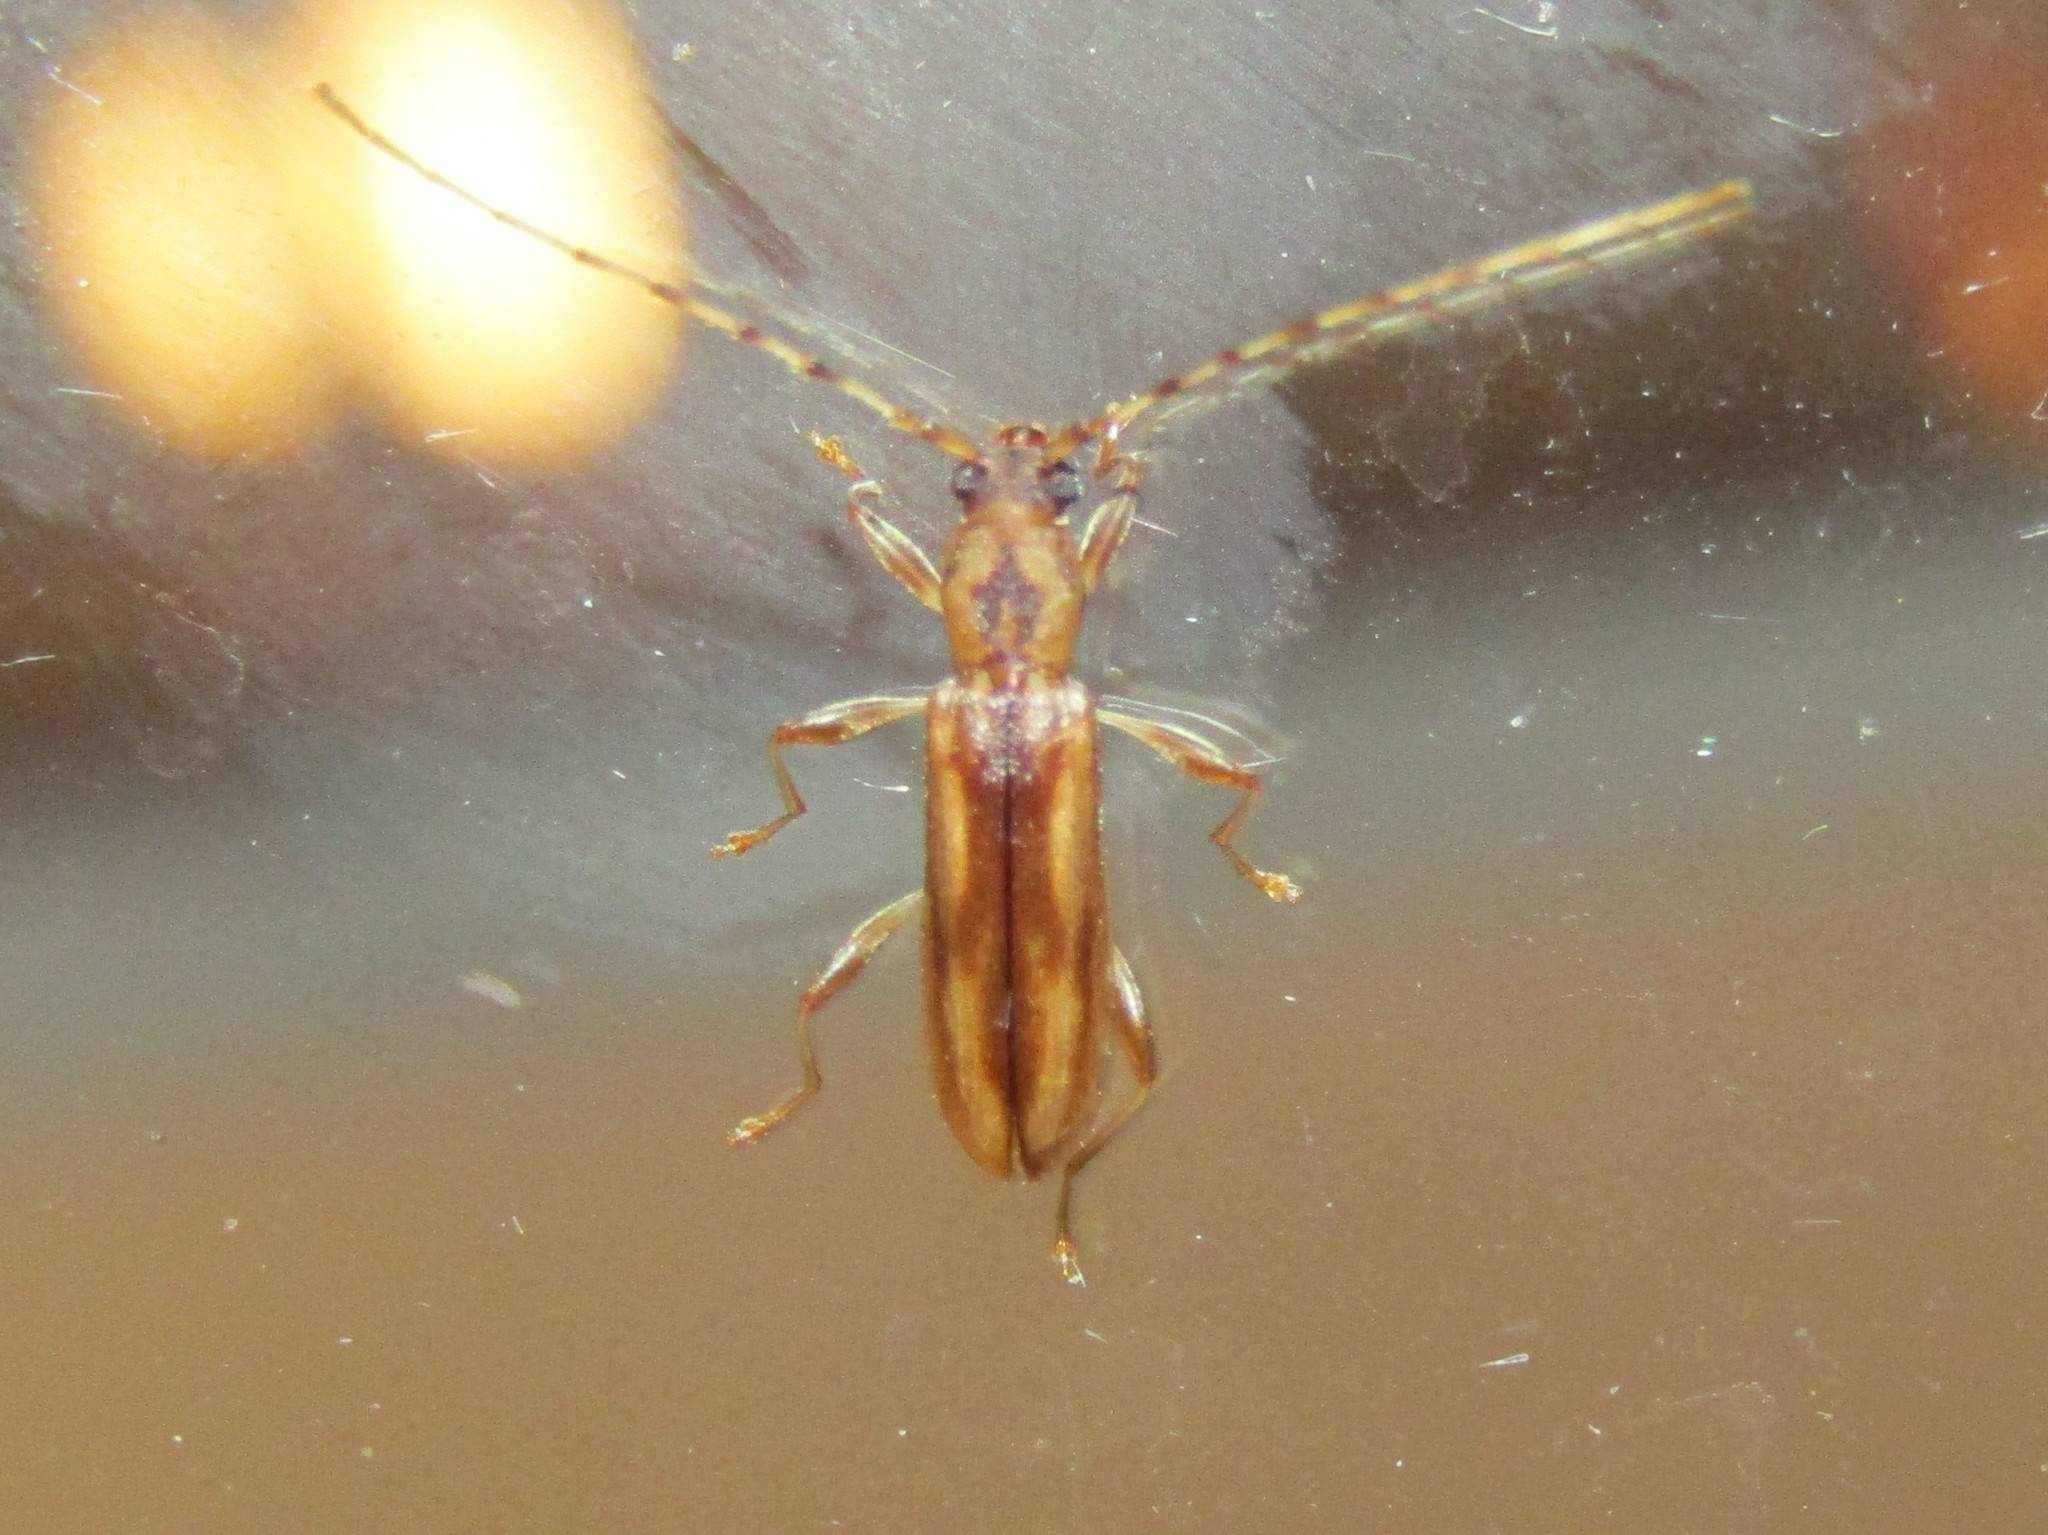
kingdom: Animalia
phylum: Arthropoda
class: Insecta
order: Coleoptera
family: Cerambycidae
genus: Curius
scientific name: Curius dentatus
